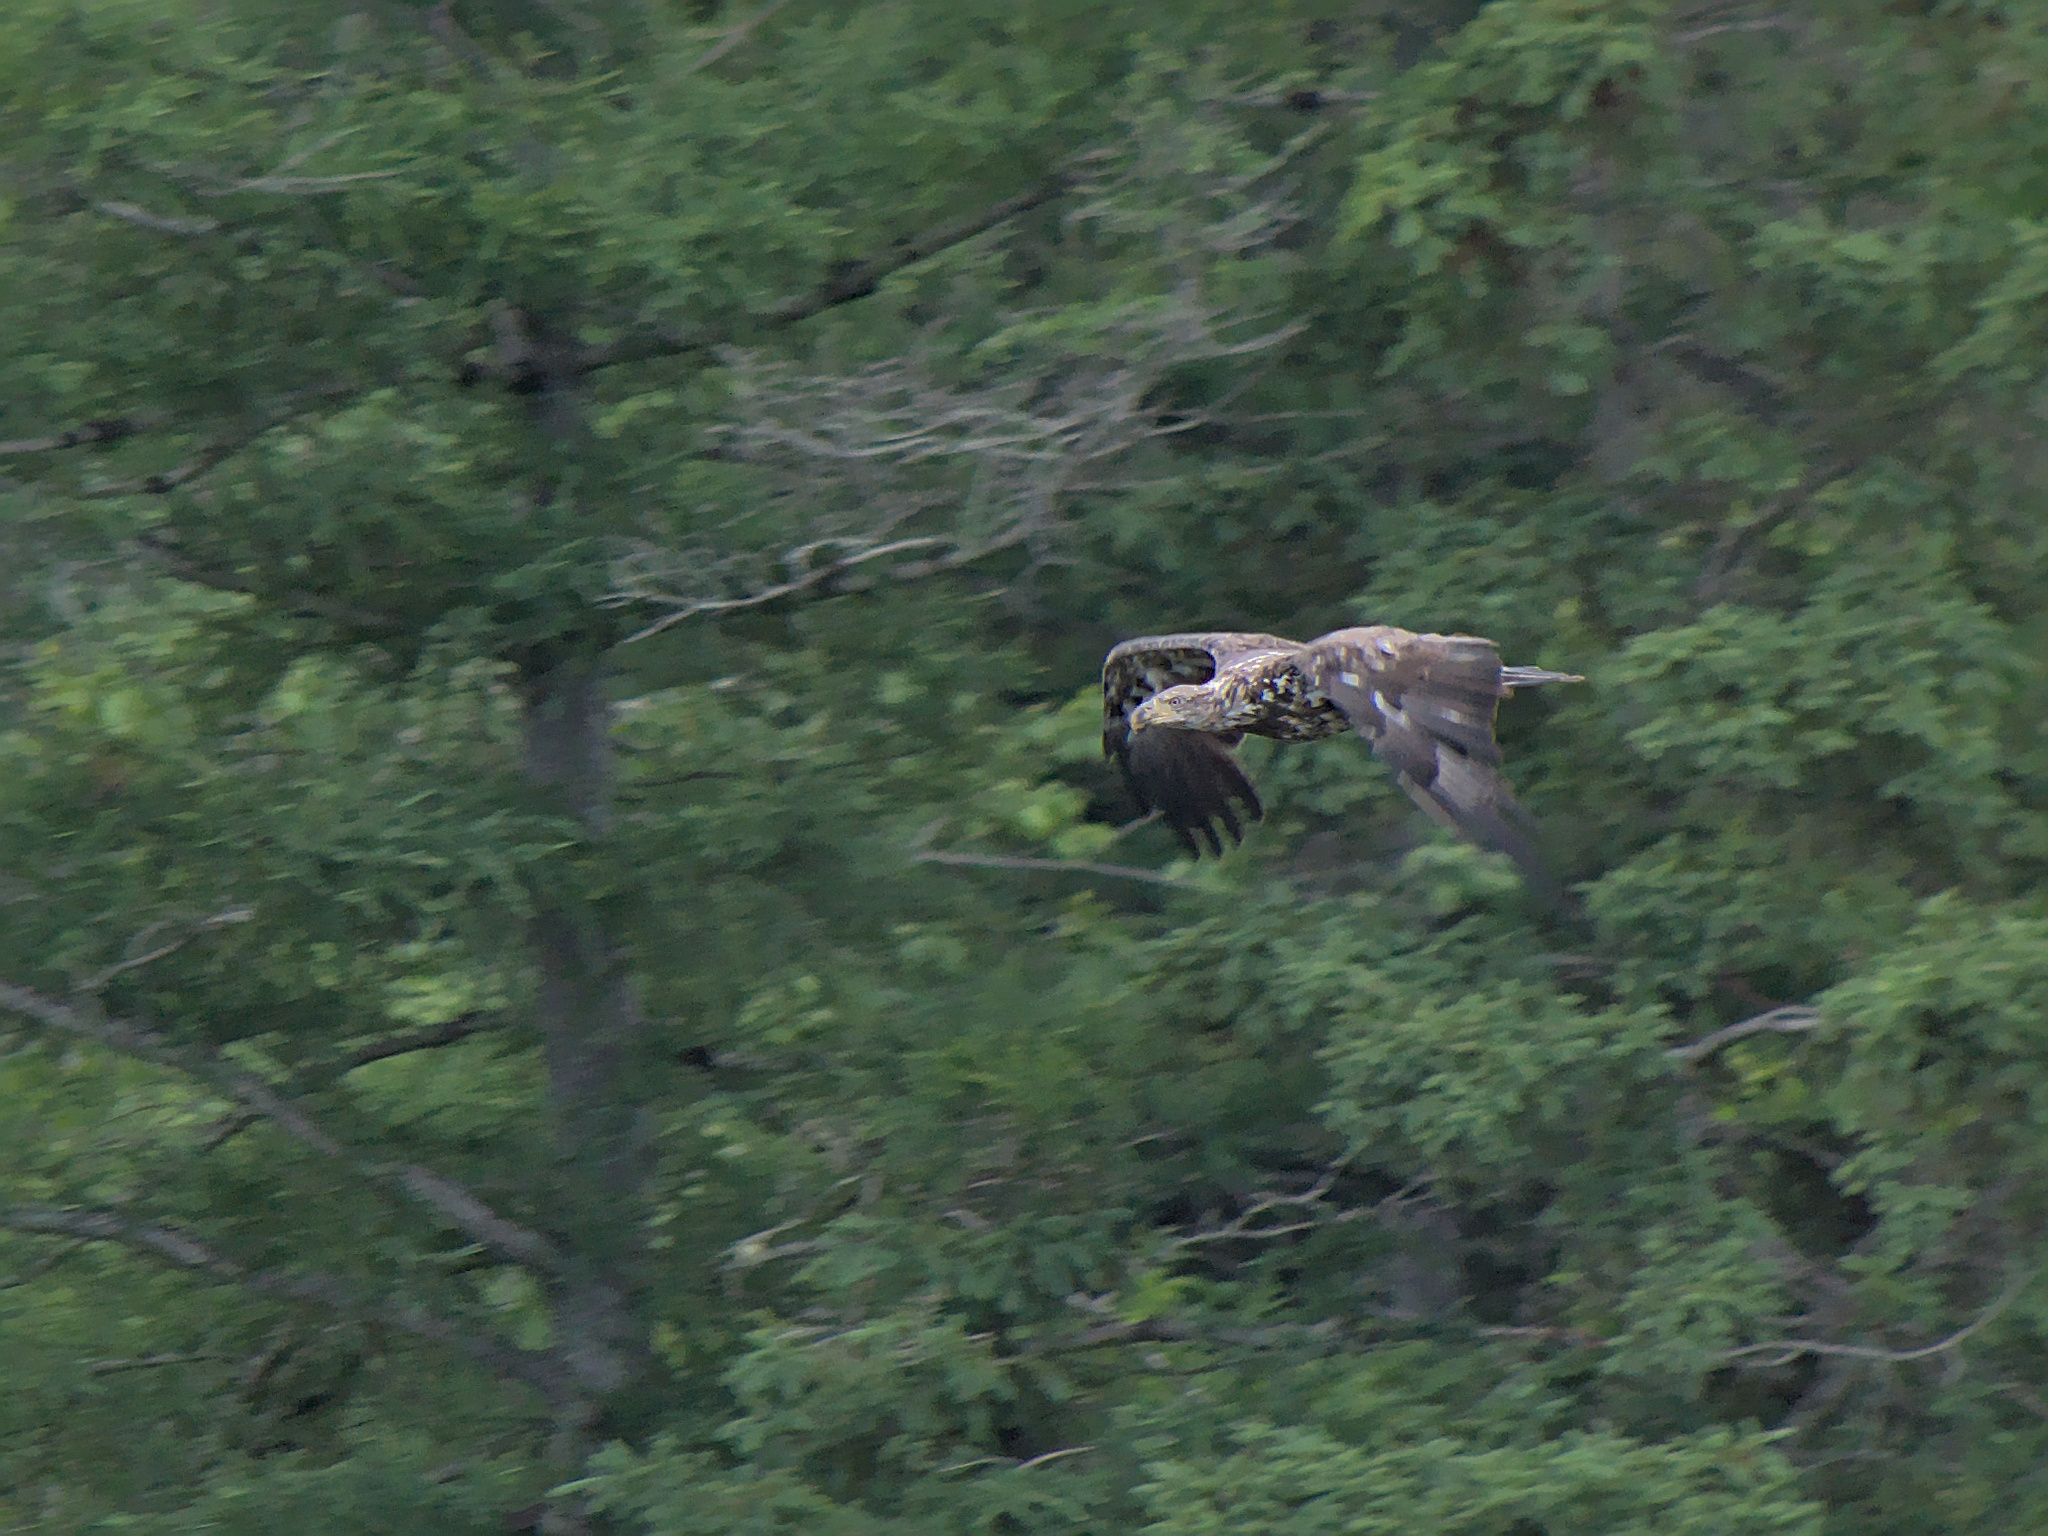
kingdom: Animalia
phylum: Chordata
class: Aves
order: Accipitriformes
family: Accipitridae
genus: Haliaeetus
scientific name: Haliaeetus leucocephalus
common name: Bald eagle
